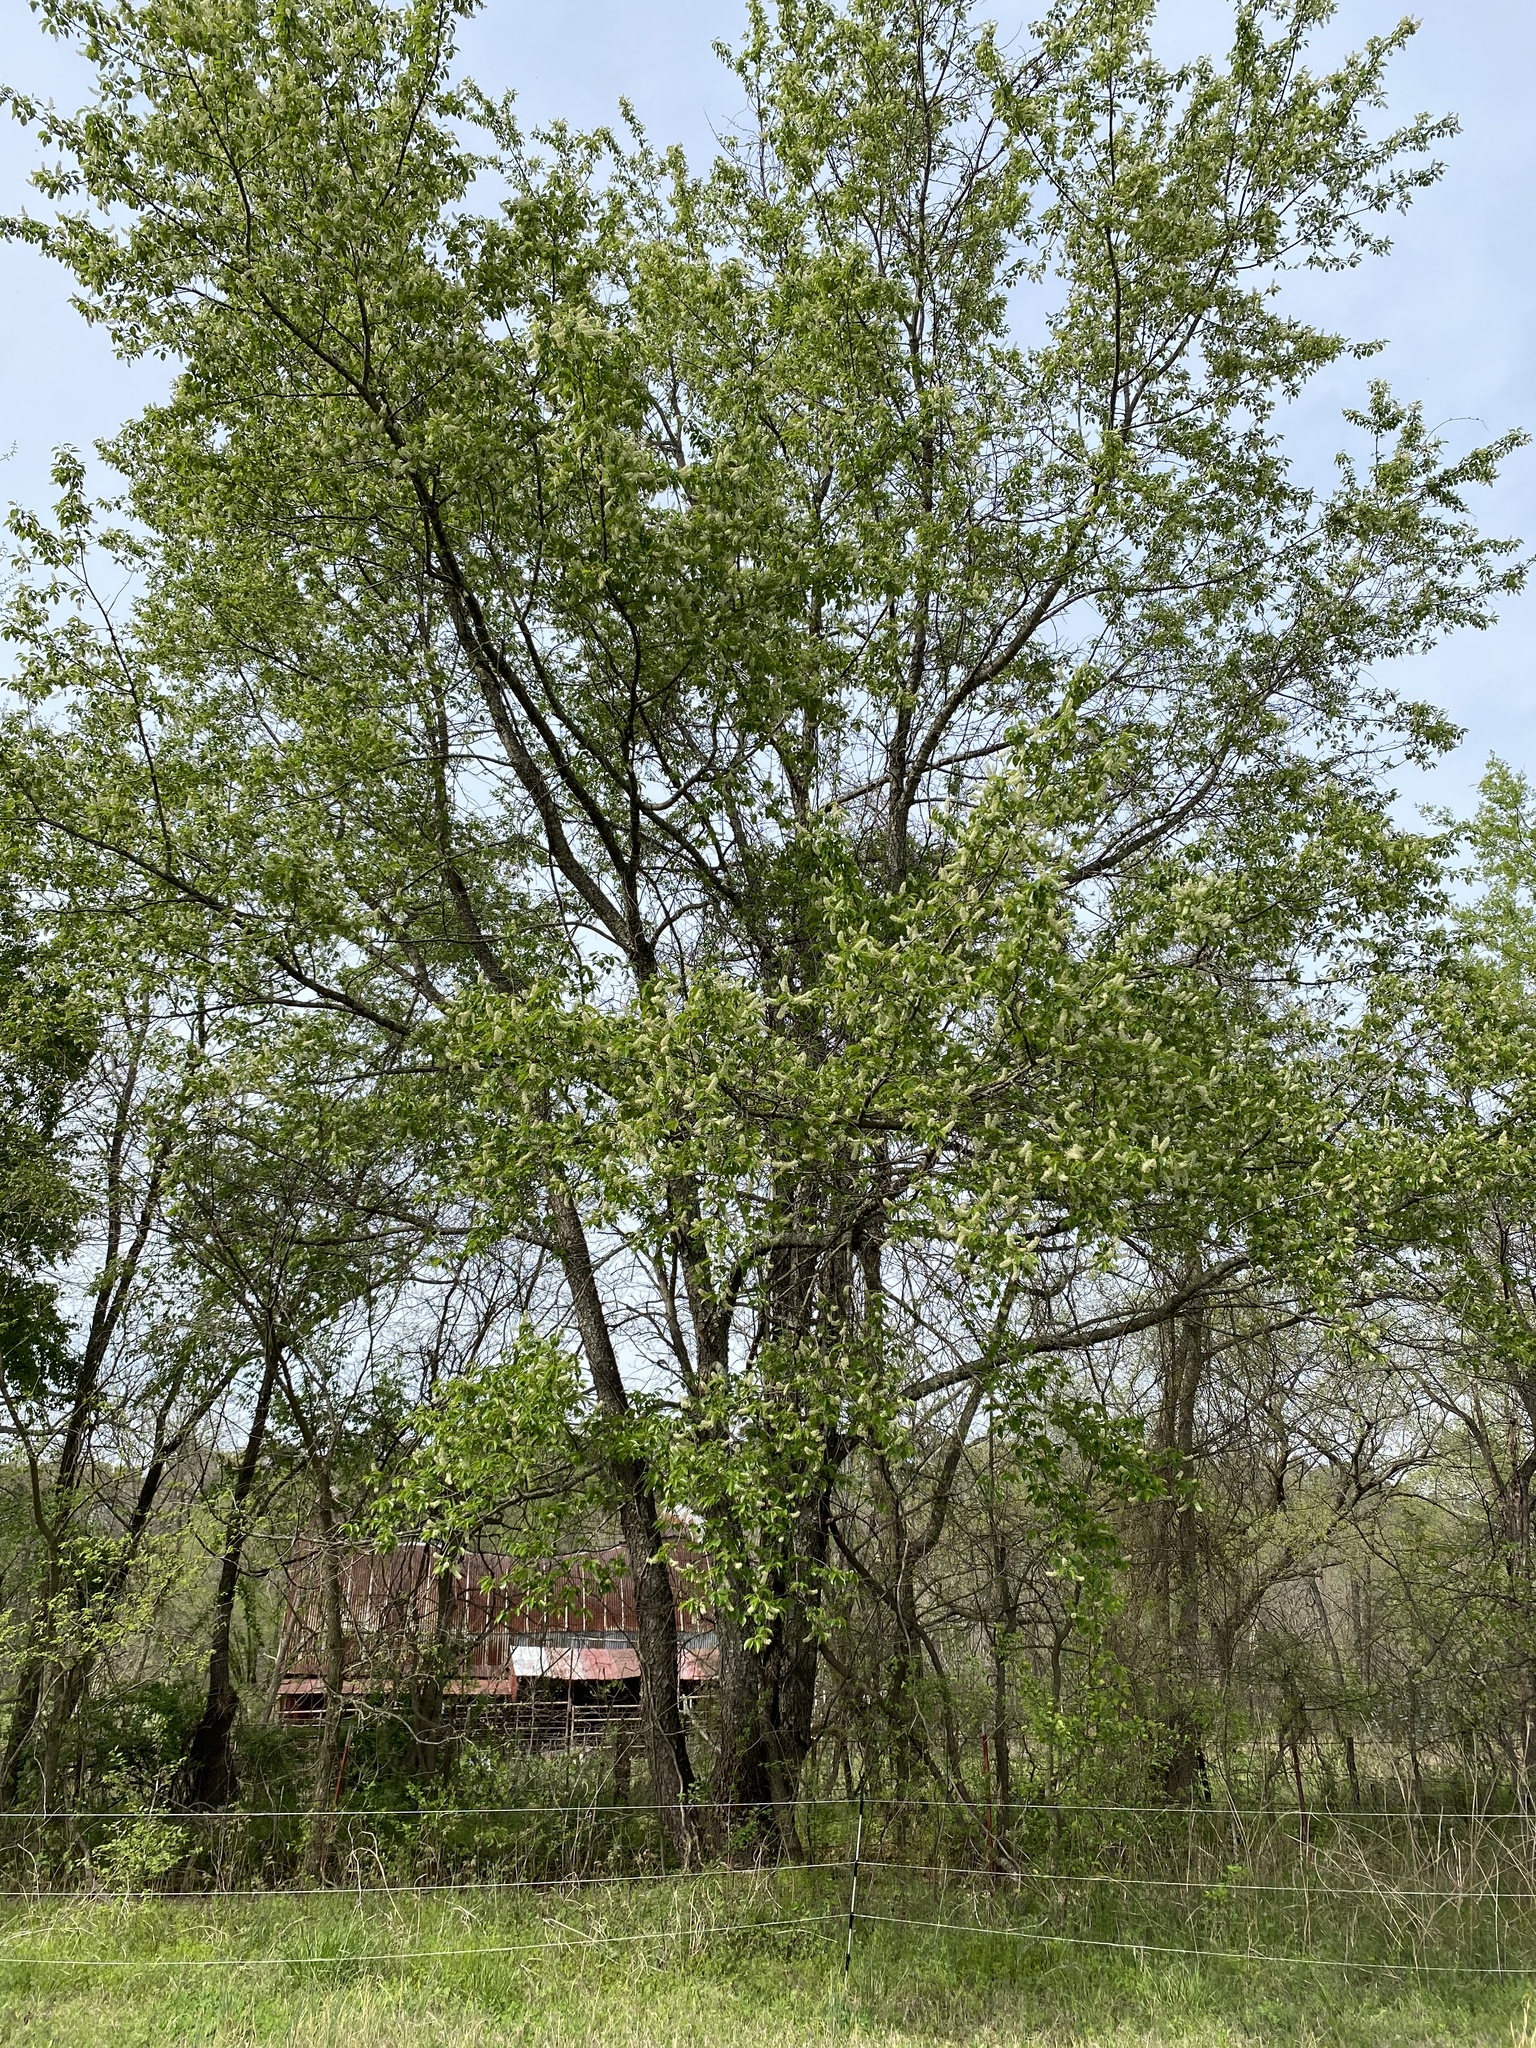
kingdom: Plantae
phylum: Tracheophyta
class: Magnoliopsida
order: Rosales
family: Rosaceae
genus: Prunus
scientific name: Prunus serotina
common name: Black cherry
